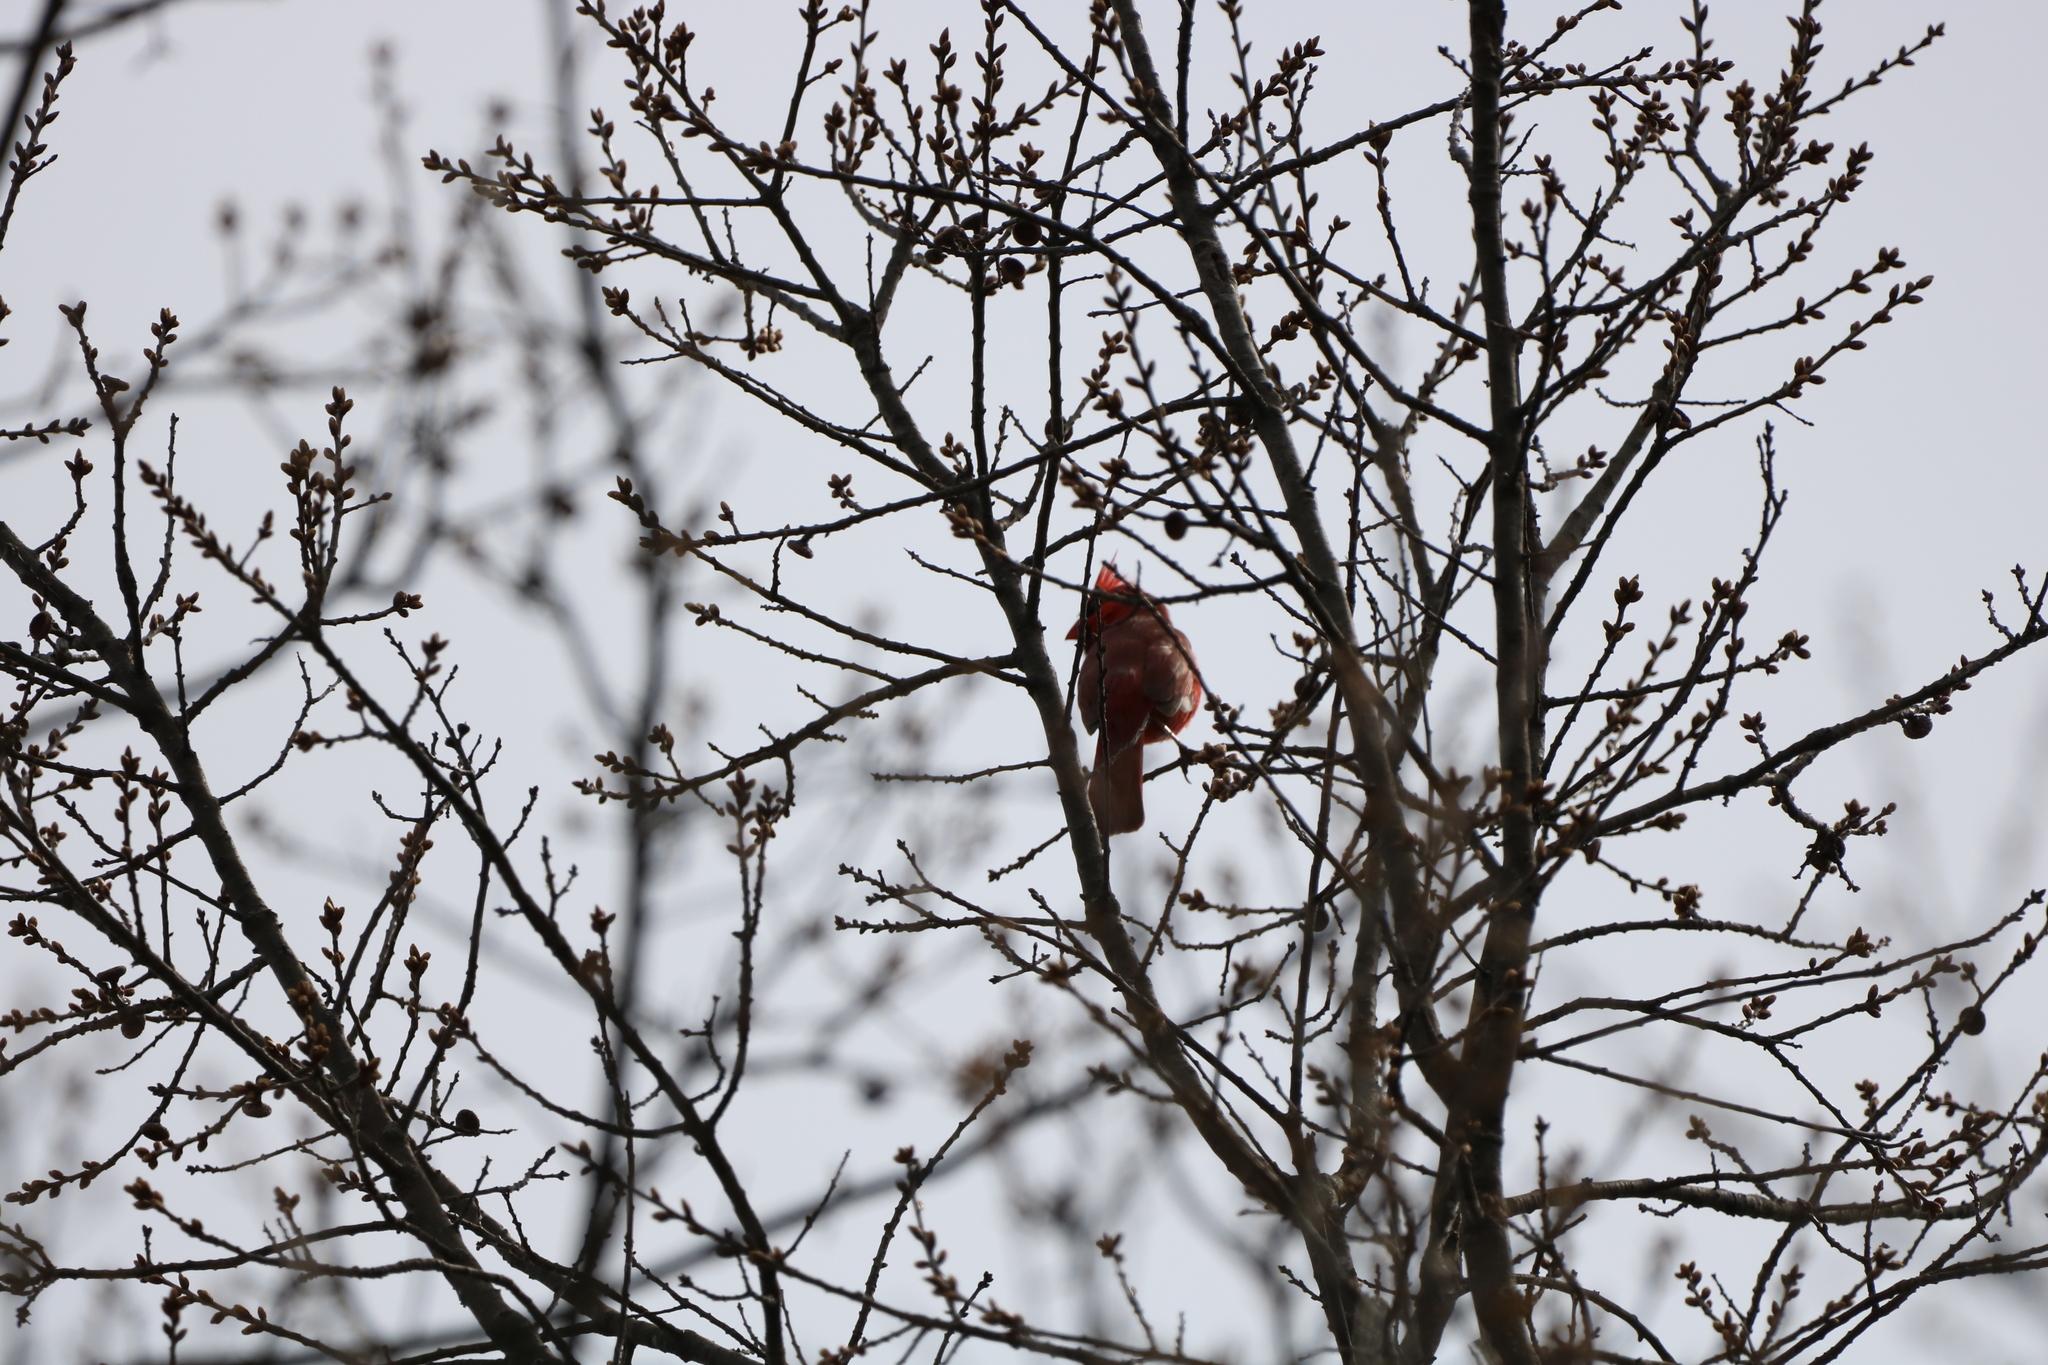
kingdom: Animalia
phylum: Chordata
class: Aves
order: Passeriformes
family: Cardinalidae
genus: Cardinalis
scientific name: Cardinalis cardinalis
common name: Northern cardinal
